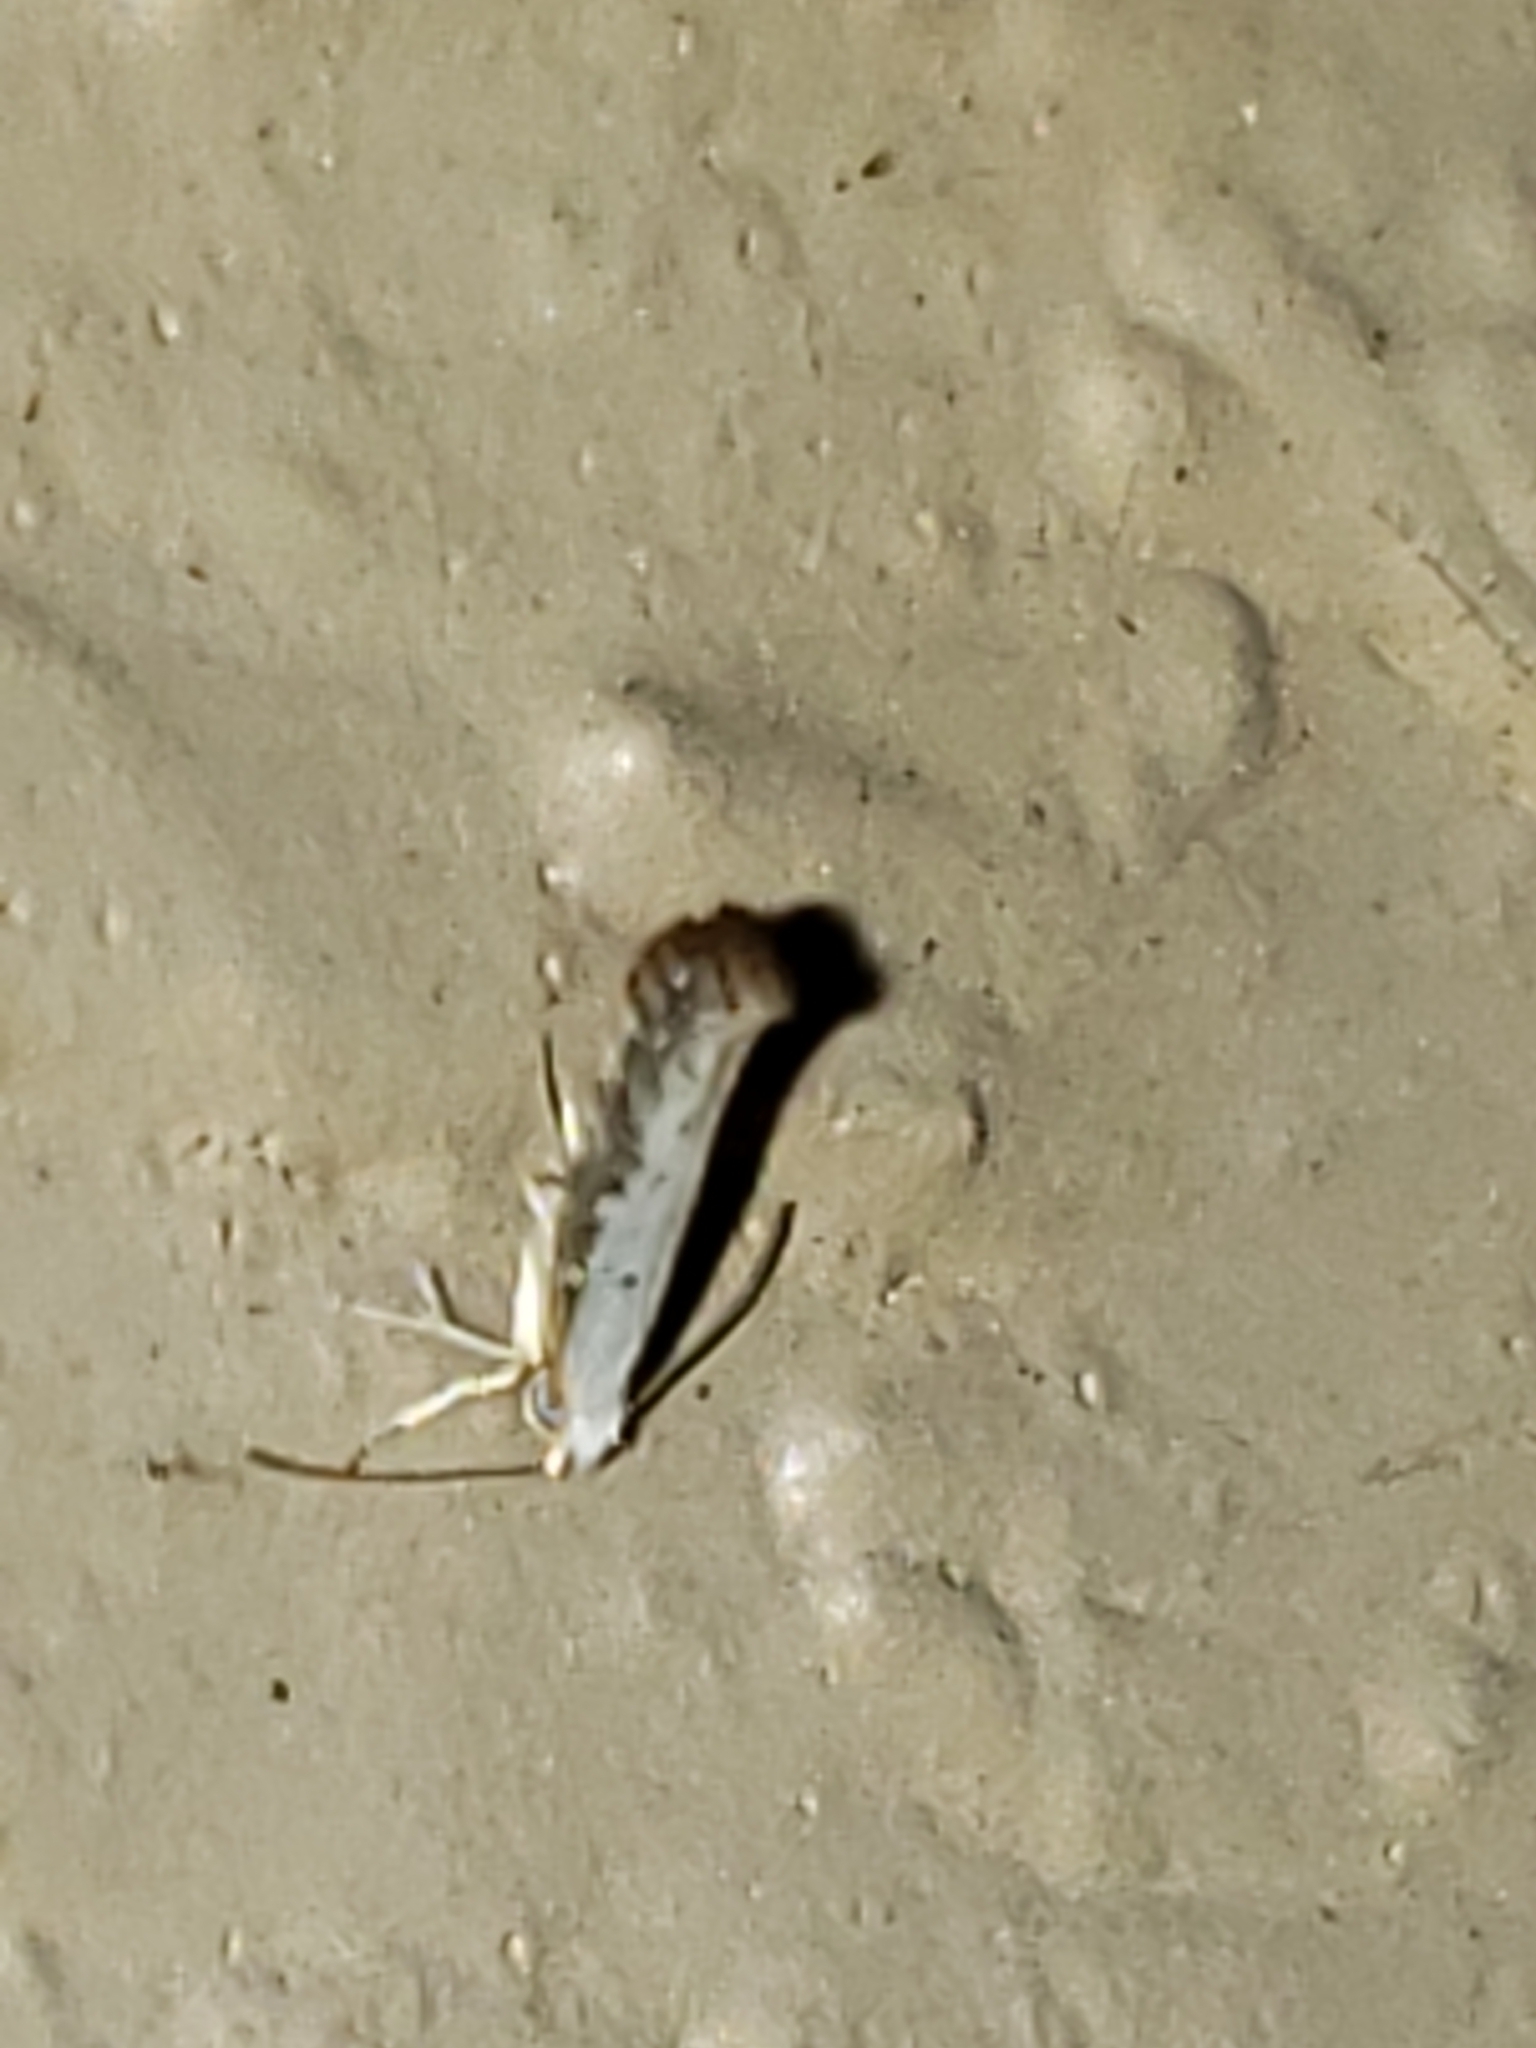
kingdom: Animalia
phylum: Arthropoda
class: Insecta
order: Lepidoptera
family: Argyresthiidae
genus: Argyresthia
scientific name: Argyresthia subreticulata
